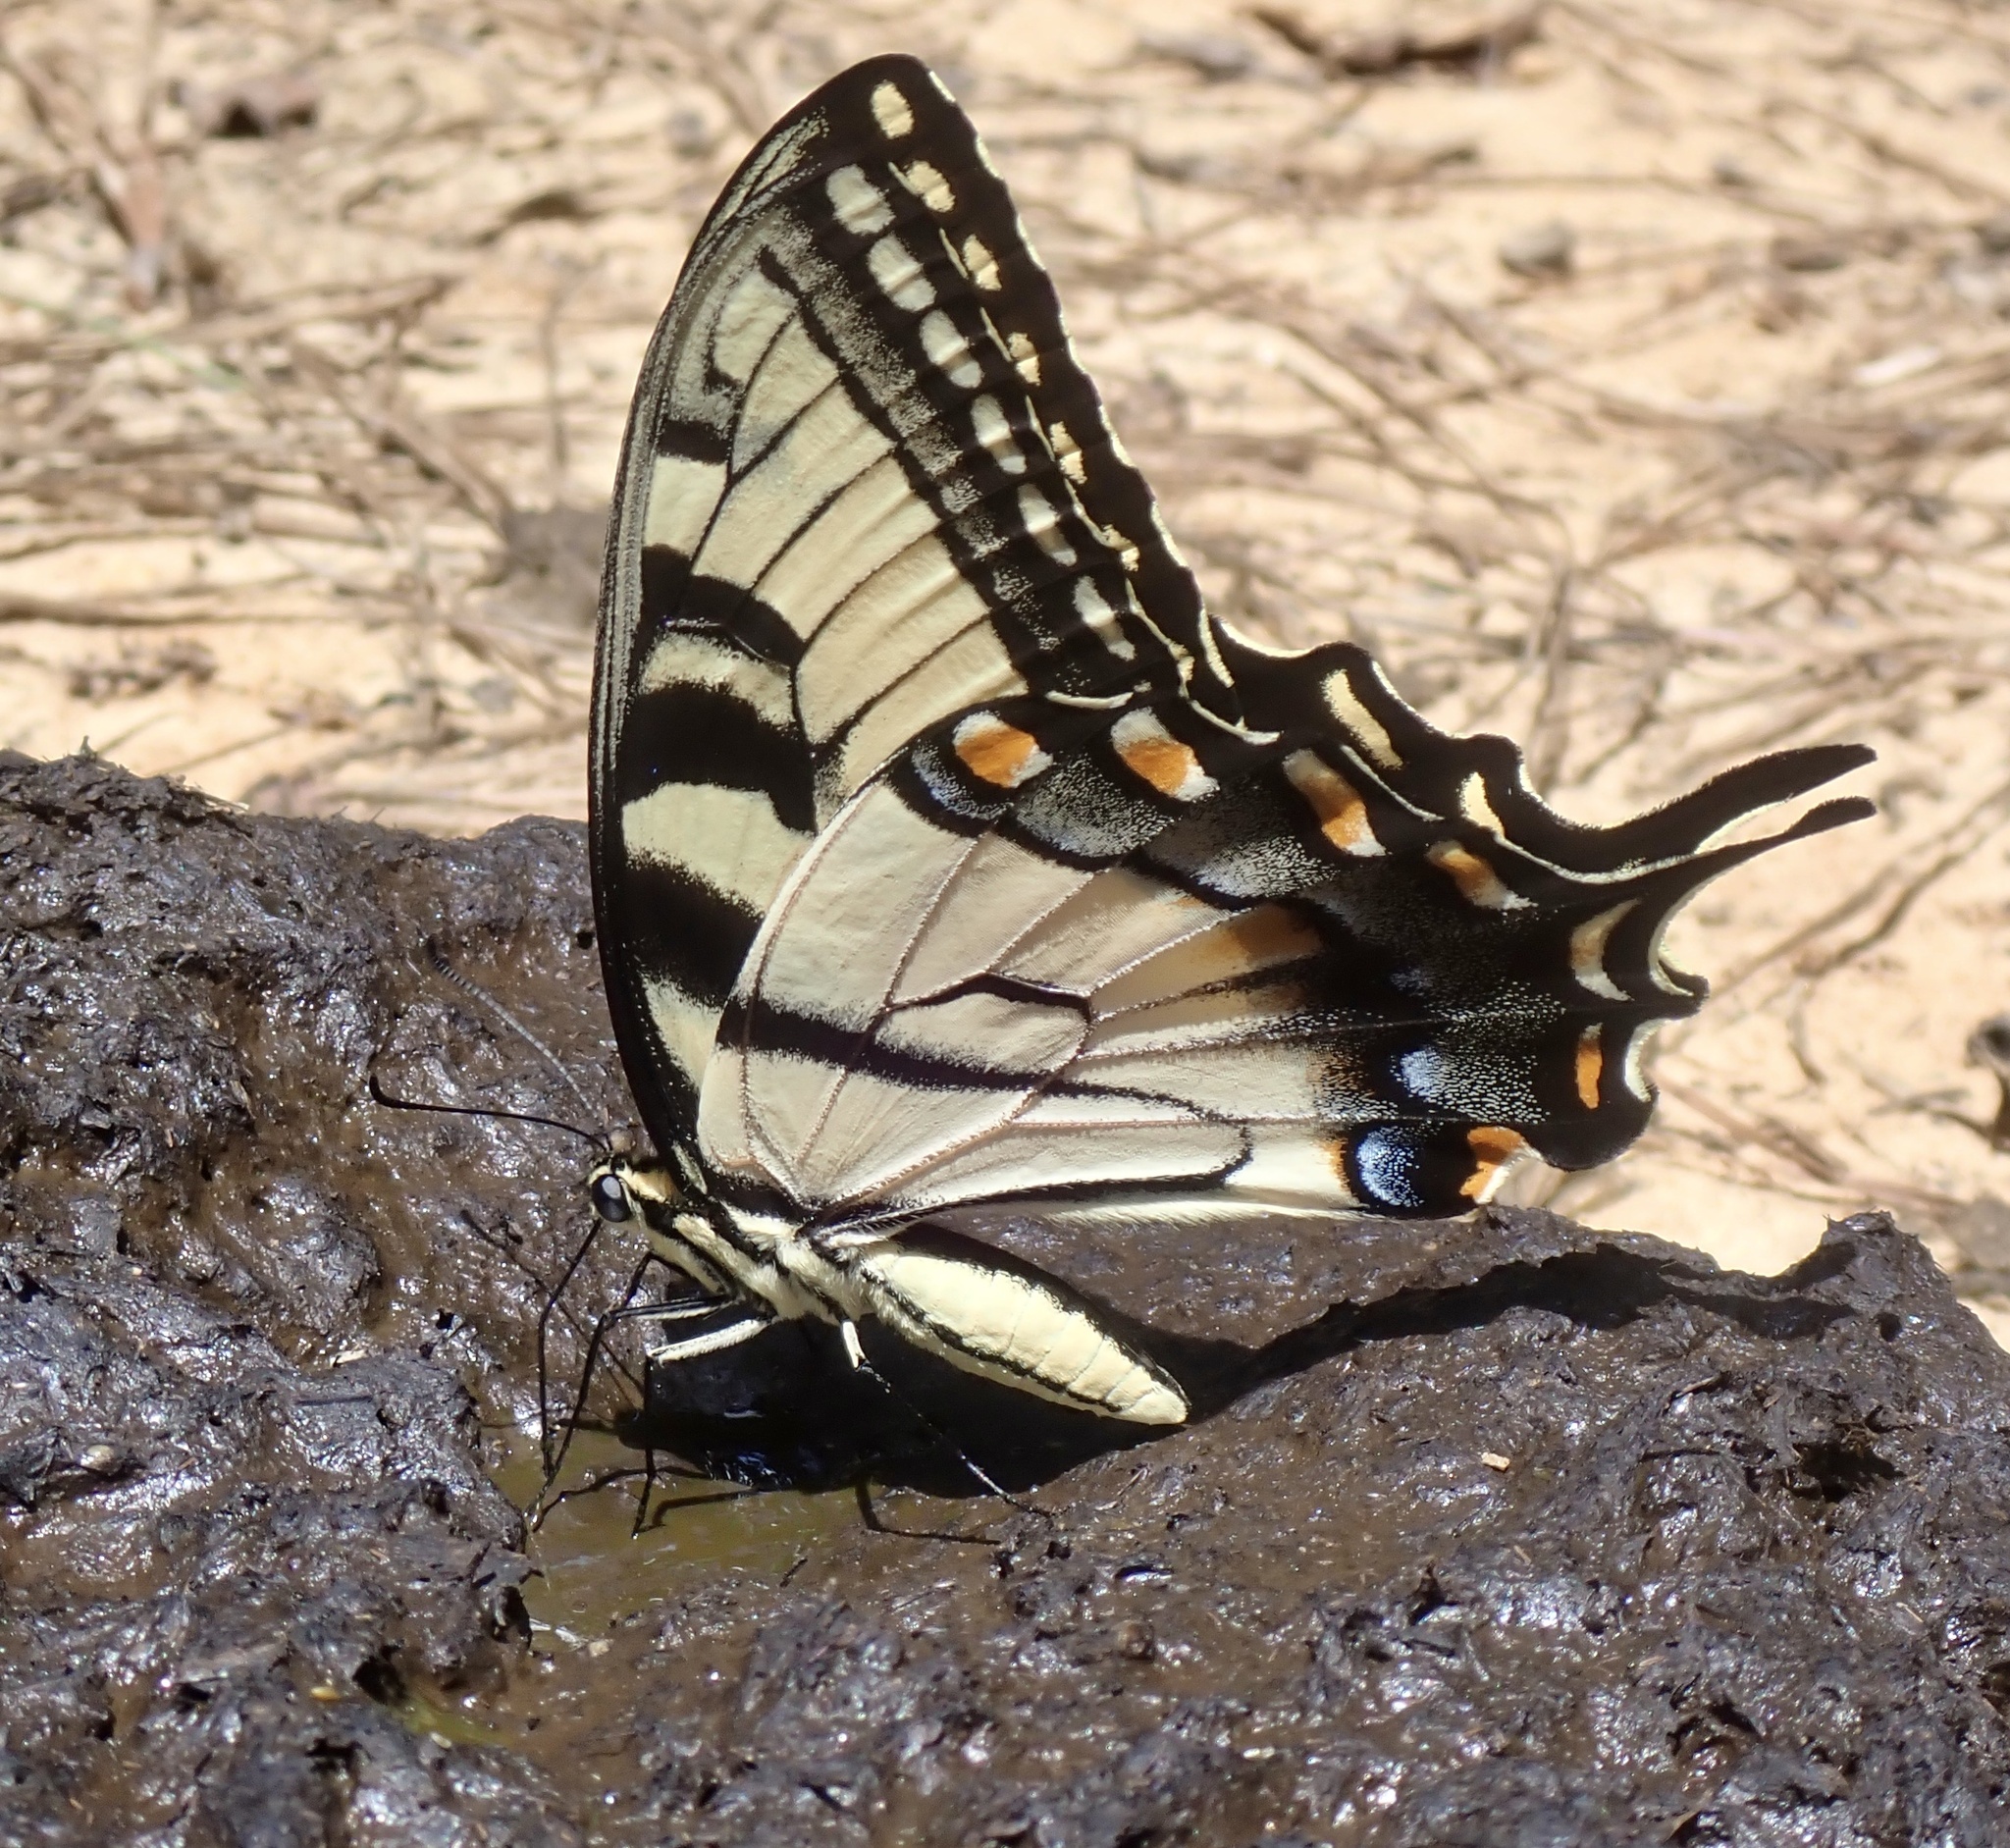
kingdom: Animalia
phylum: Arthropoda
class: Insecta
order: Lepidoptera
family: Papilionidae
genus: Papilio
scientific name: Papilio glaucus
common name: Tiger swallowtail
